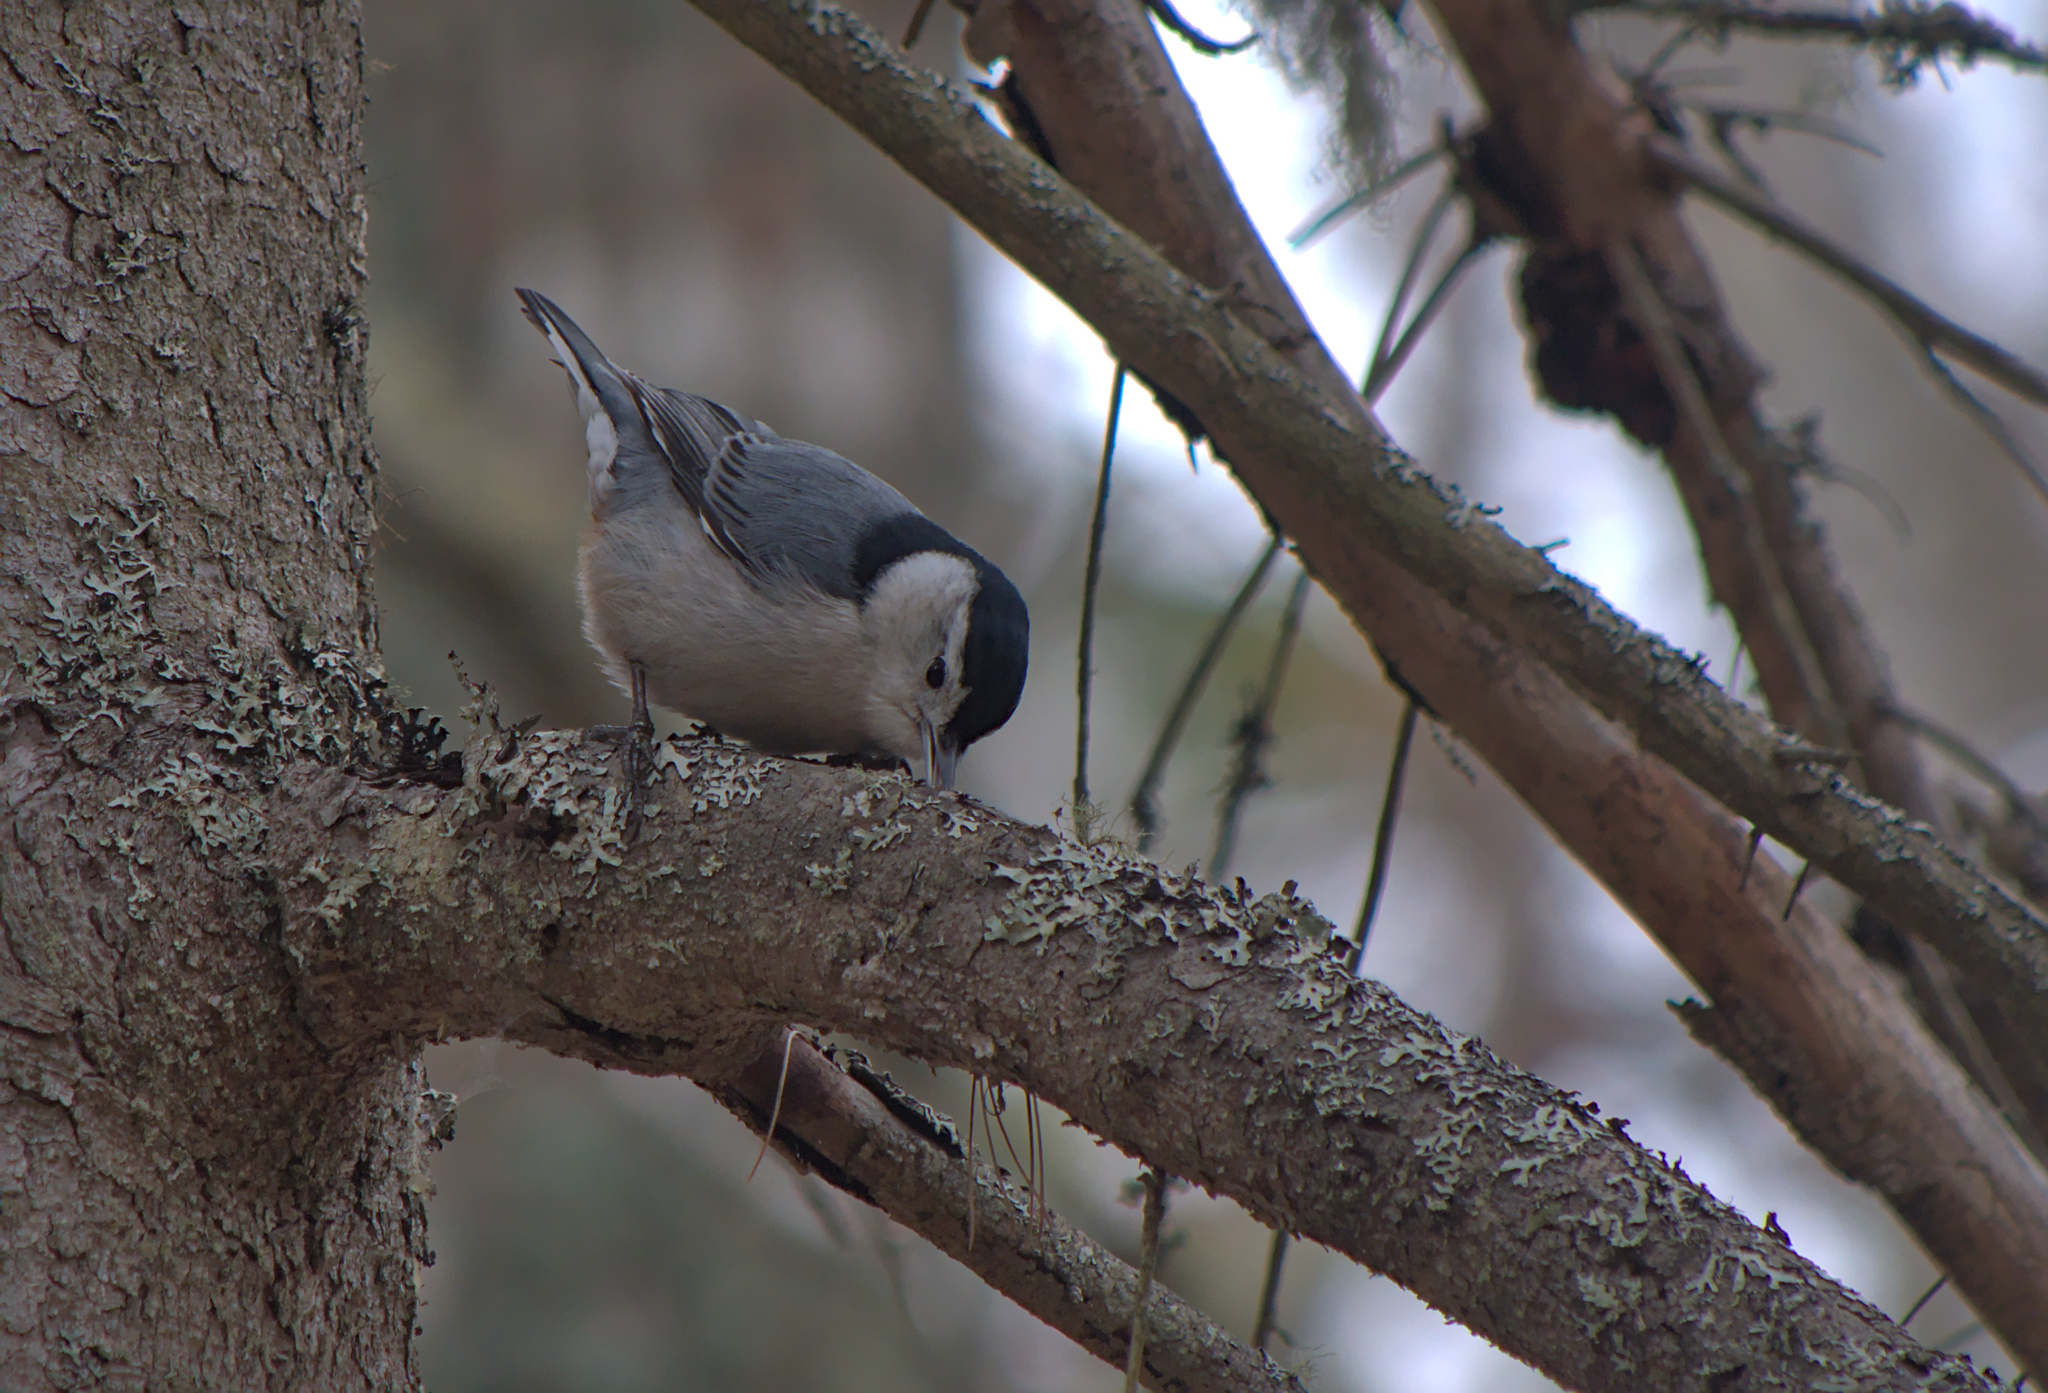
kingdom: Animalia
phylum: Chordata
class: Aves
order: Passeriformes
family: Sittidae
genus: Sitta
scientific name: Sitta carolinensis
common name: White-breasted nuthatch
